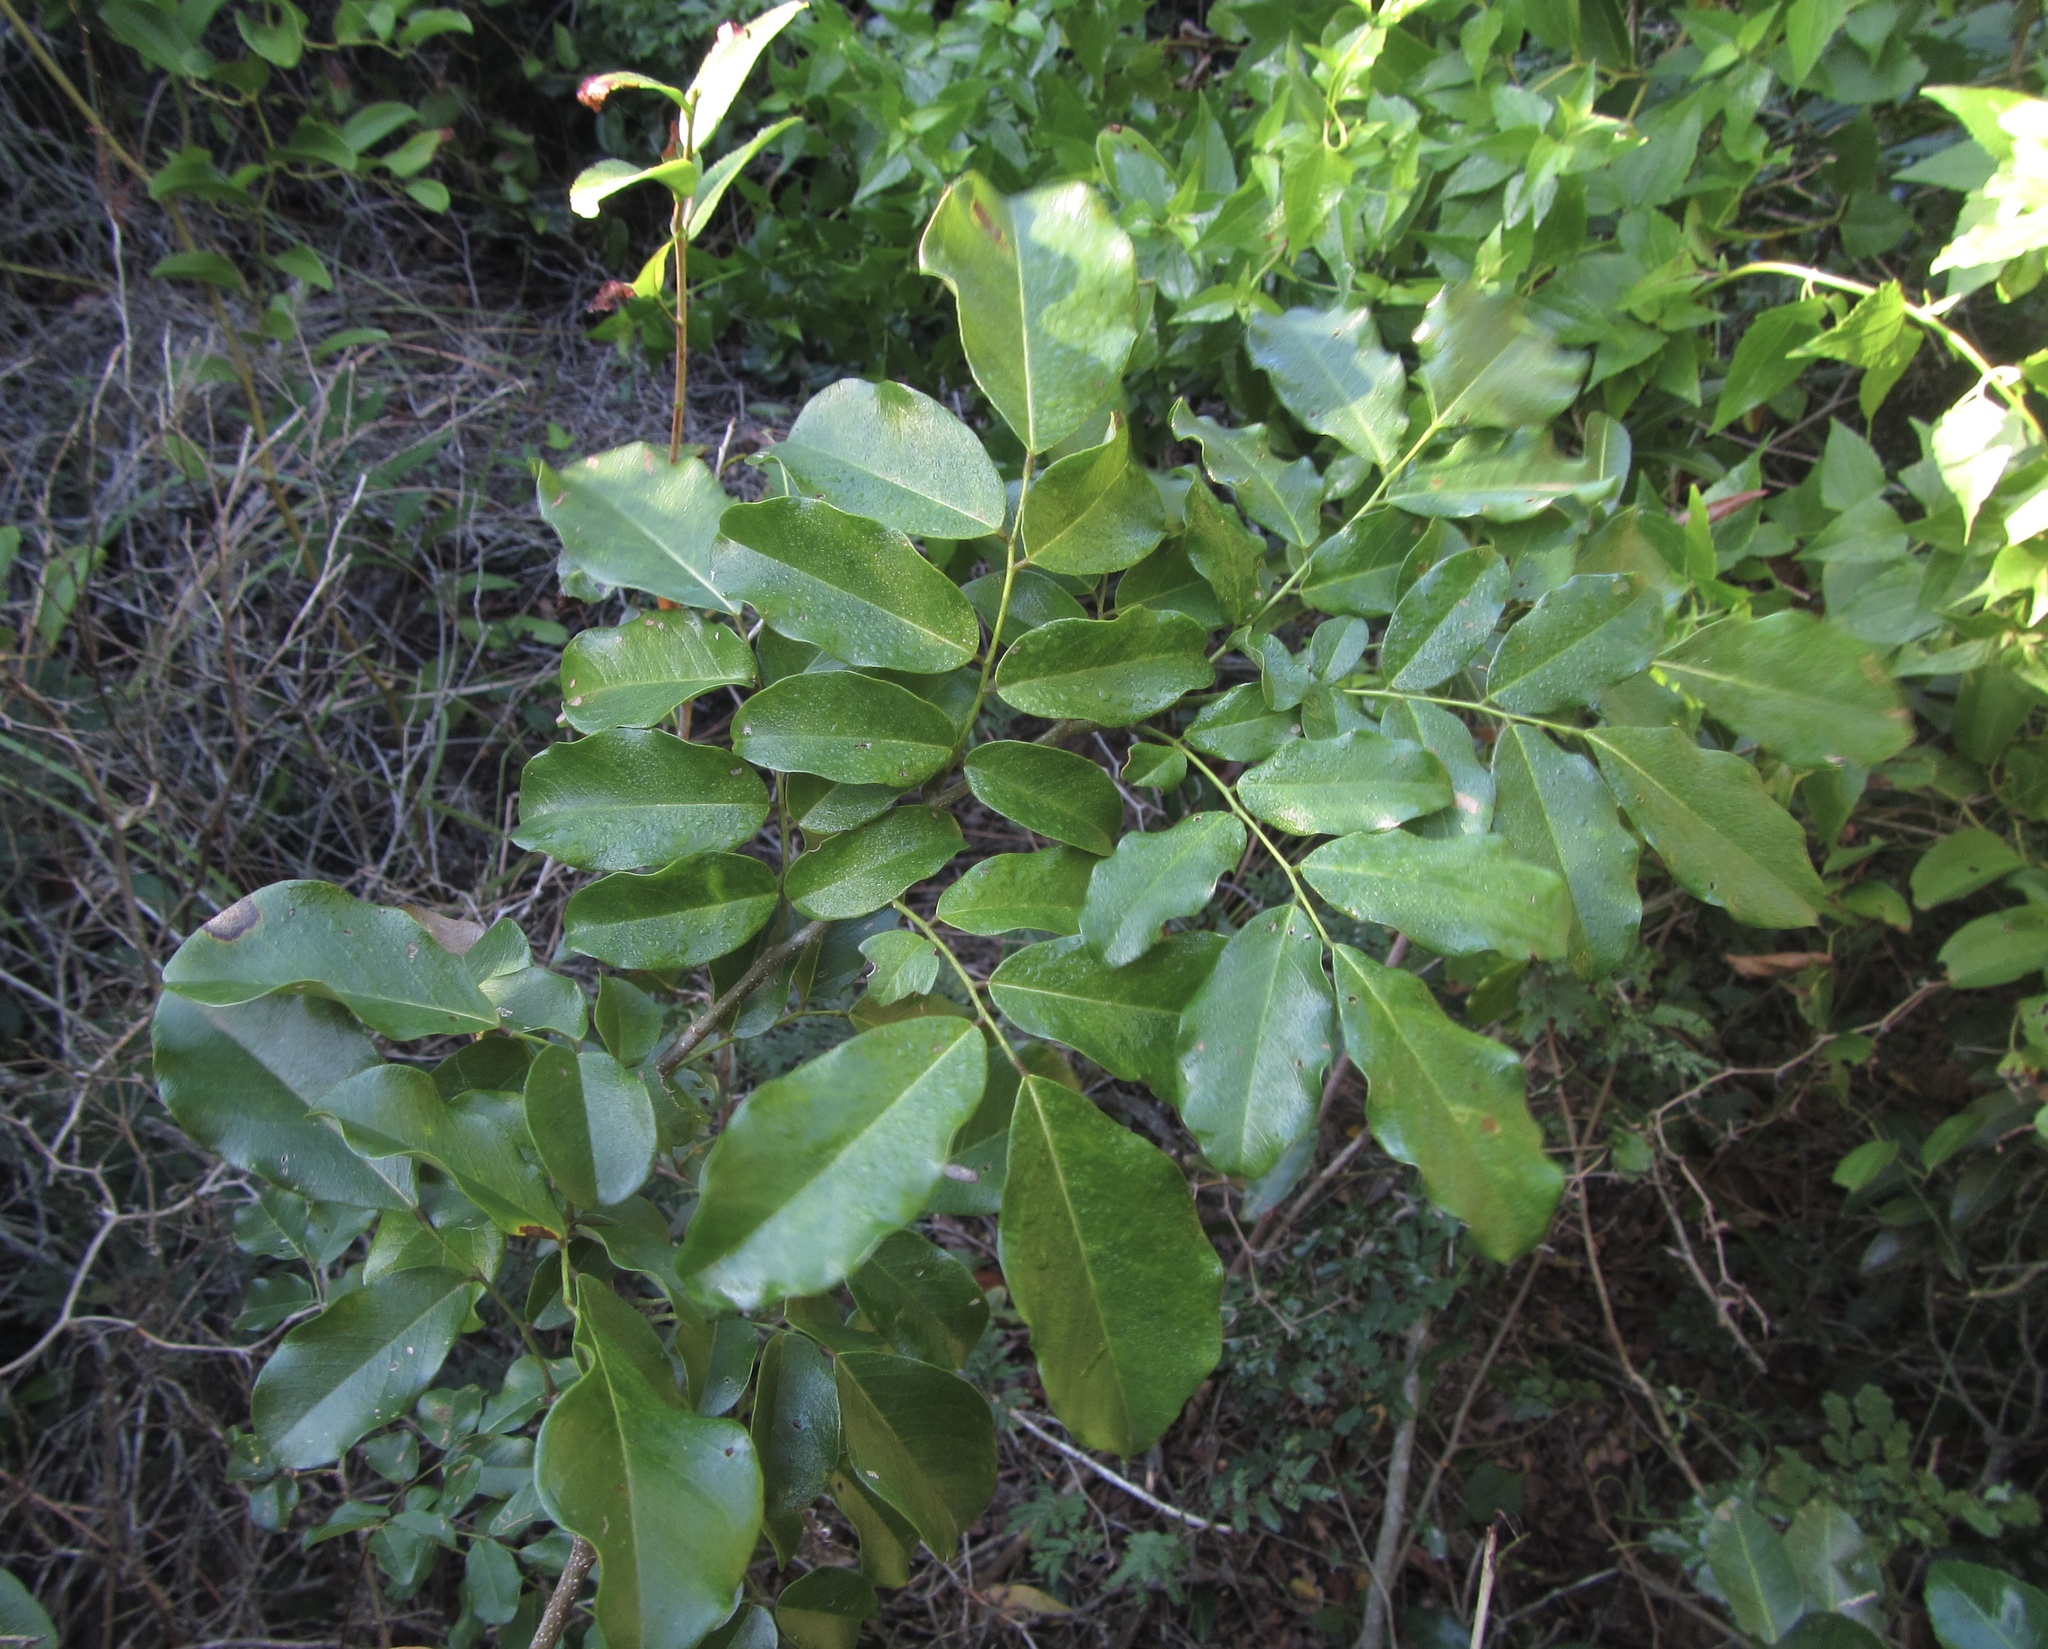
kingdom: Plantae
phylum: Tracheophyta
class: Magnoliopsida
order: Fabales
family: Fabaceae
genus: Dalbergia
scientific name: Dalbergia obovata
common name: Climbing flat-bean
